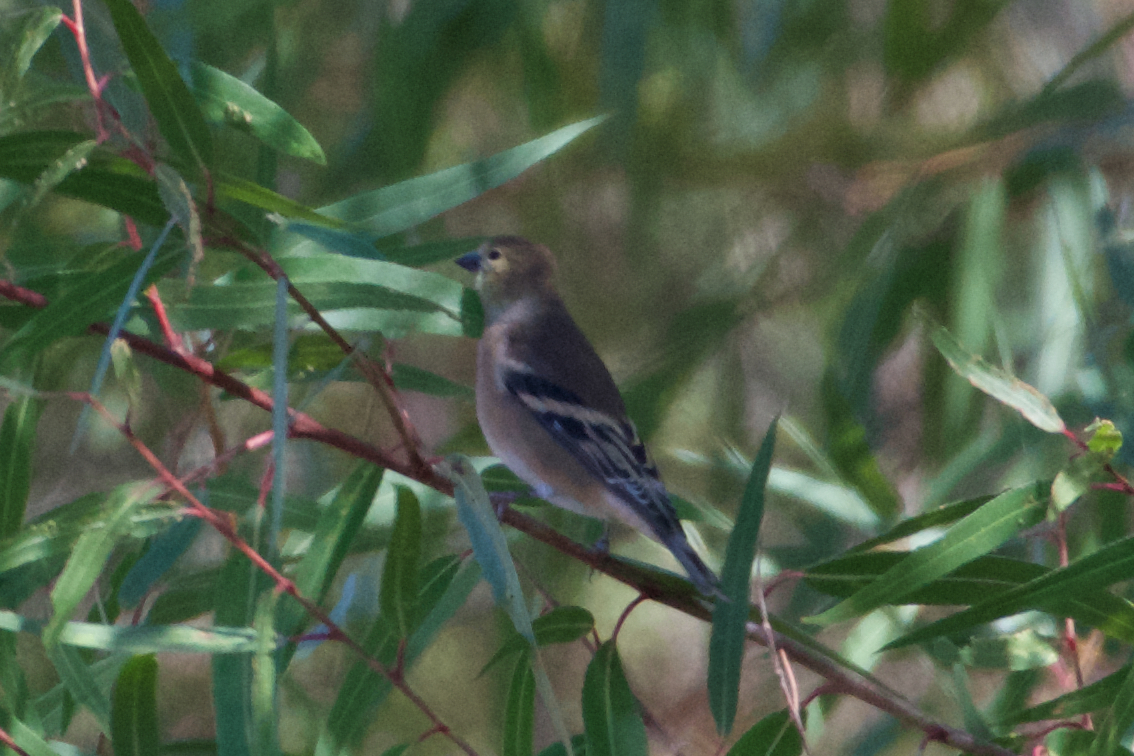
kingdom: Animalia
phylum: Chordata
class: Aves
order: Passeriformes
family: Fringillidae
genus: Spinus
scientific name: Spinus tristis
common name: American goldfinch
